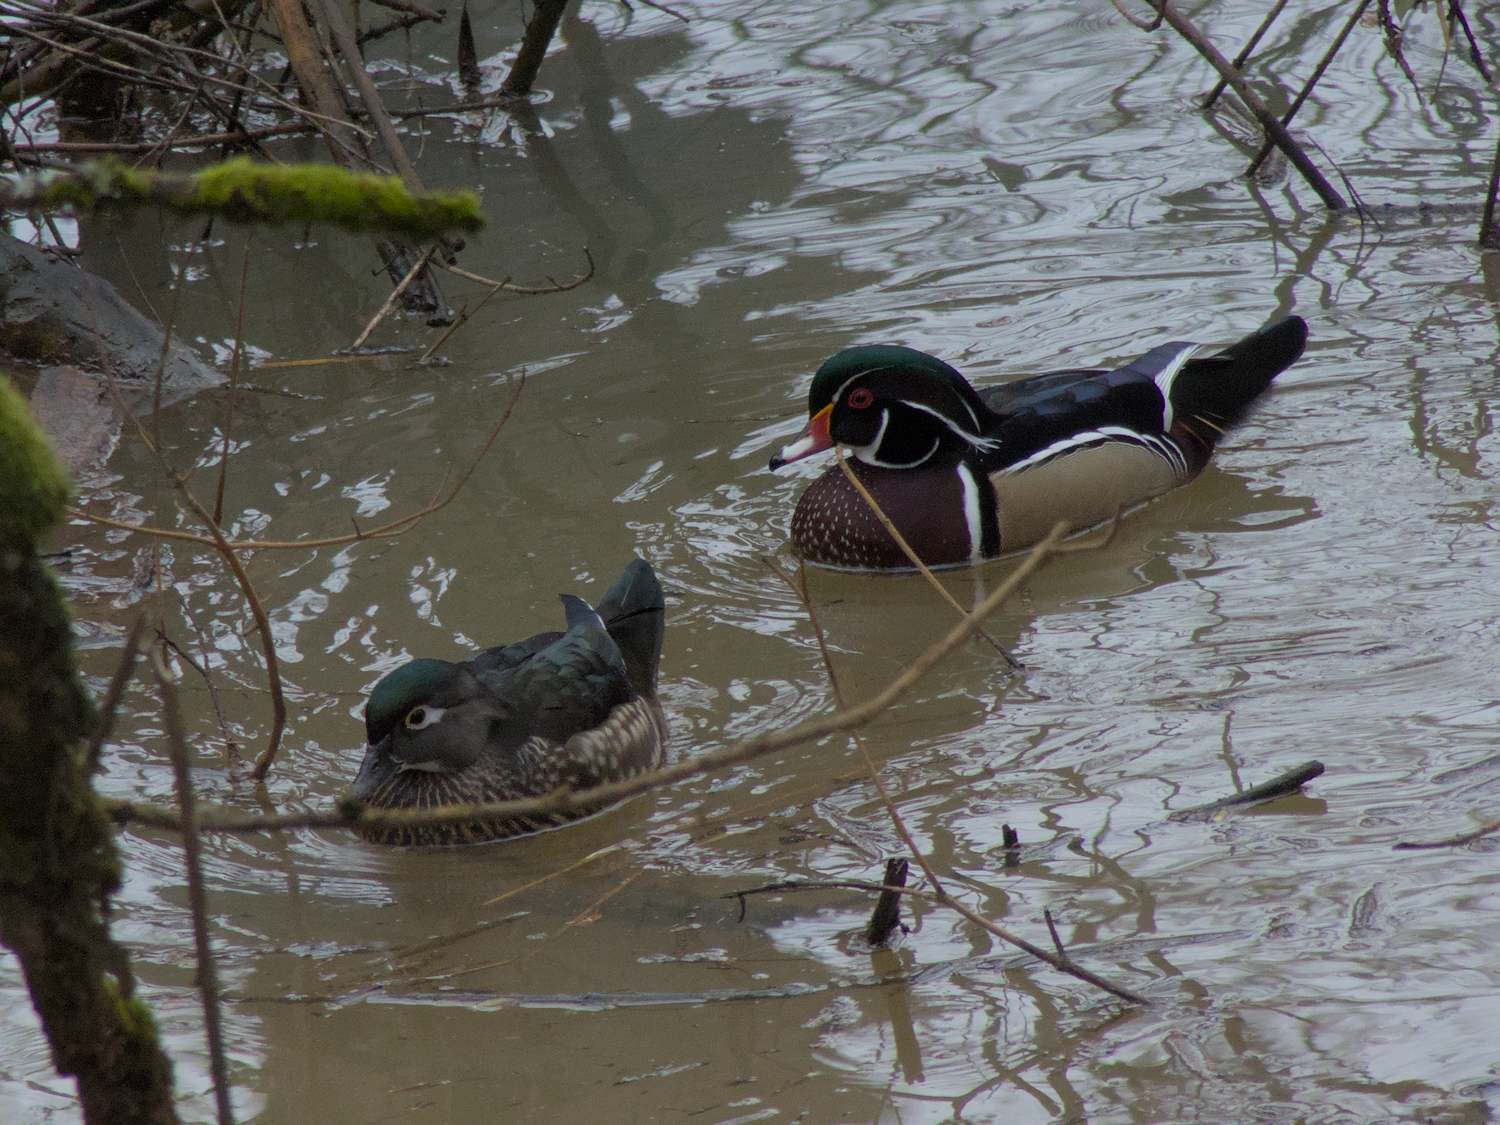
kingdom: Animalia
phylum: Chordata
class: Aves
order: Anseriformes
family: Anatidae
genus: Aix
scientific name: Aix sponsa
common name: Wood duck
